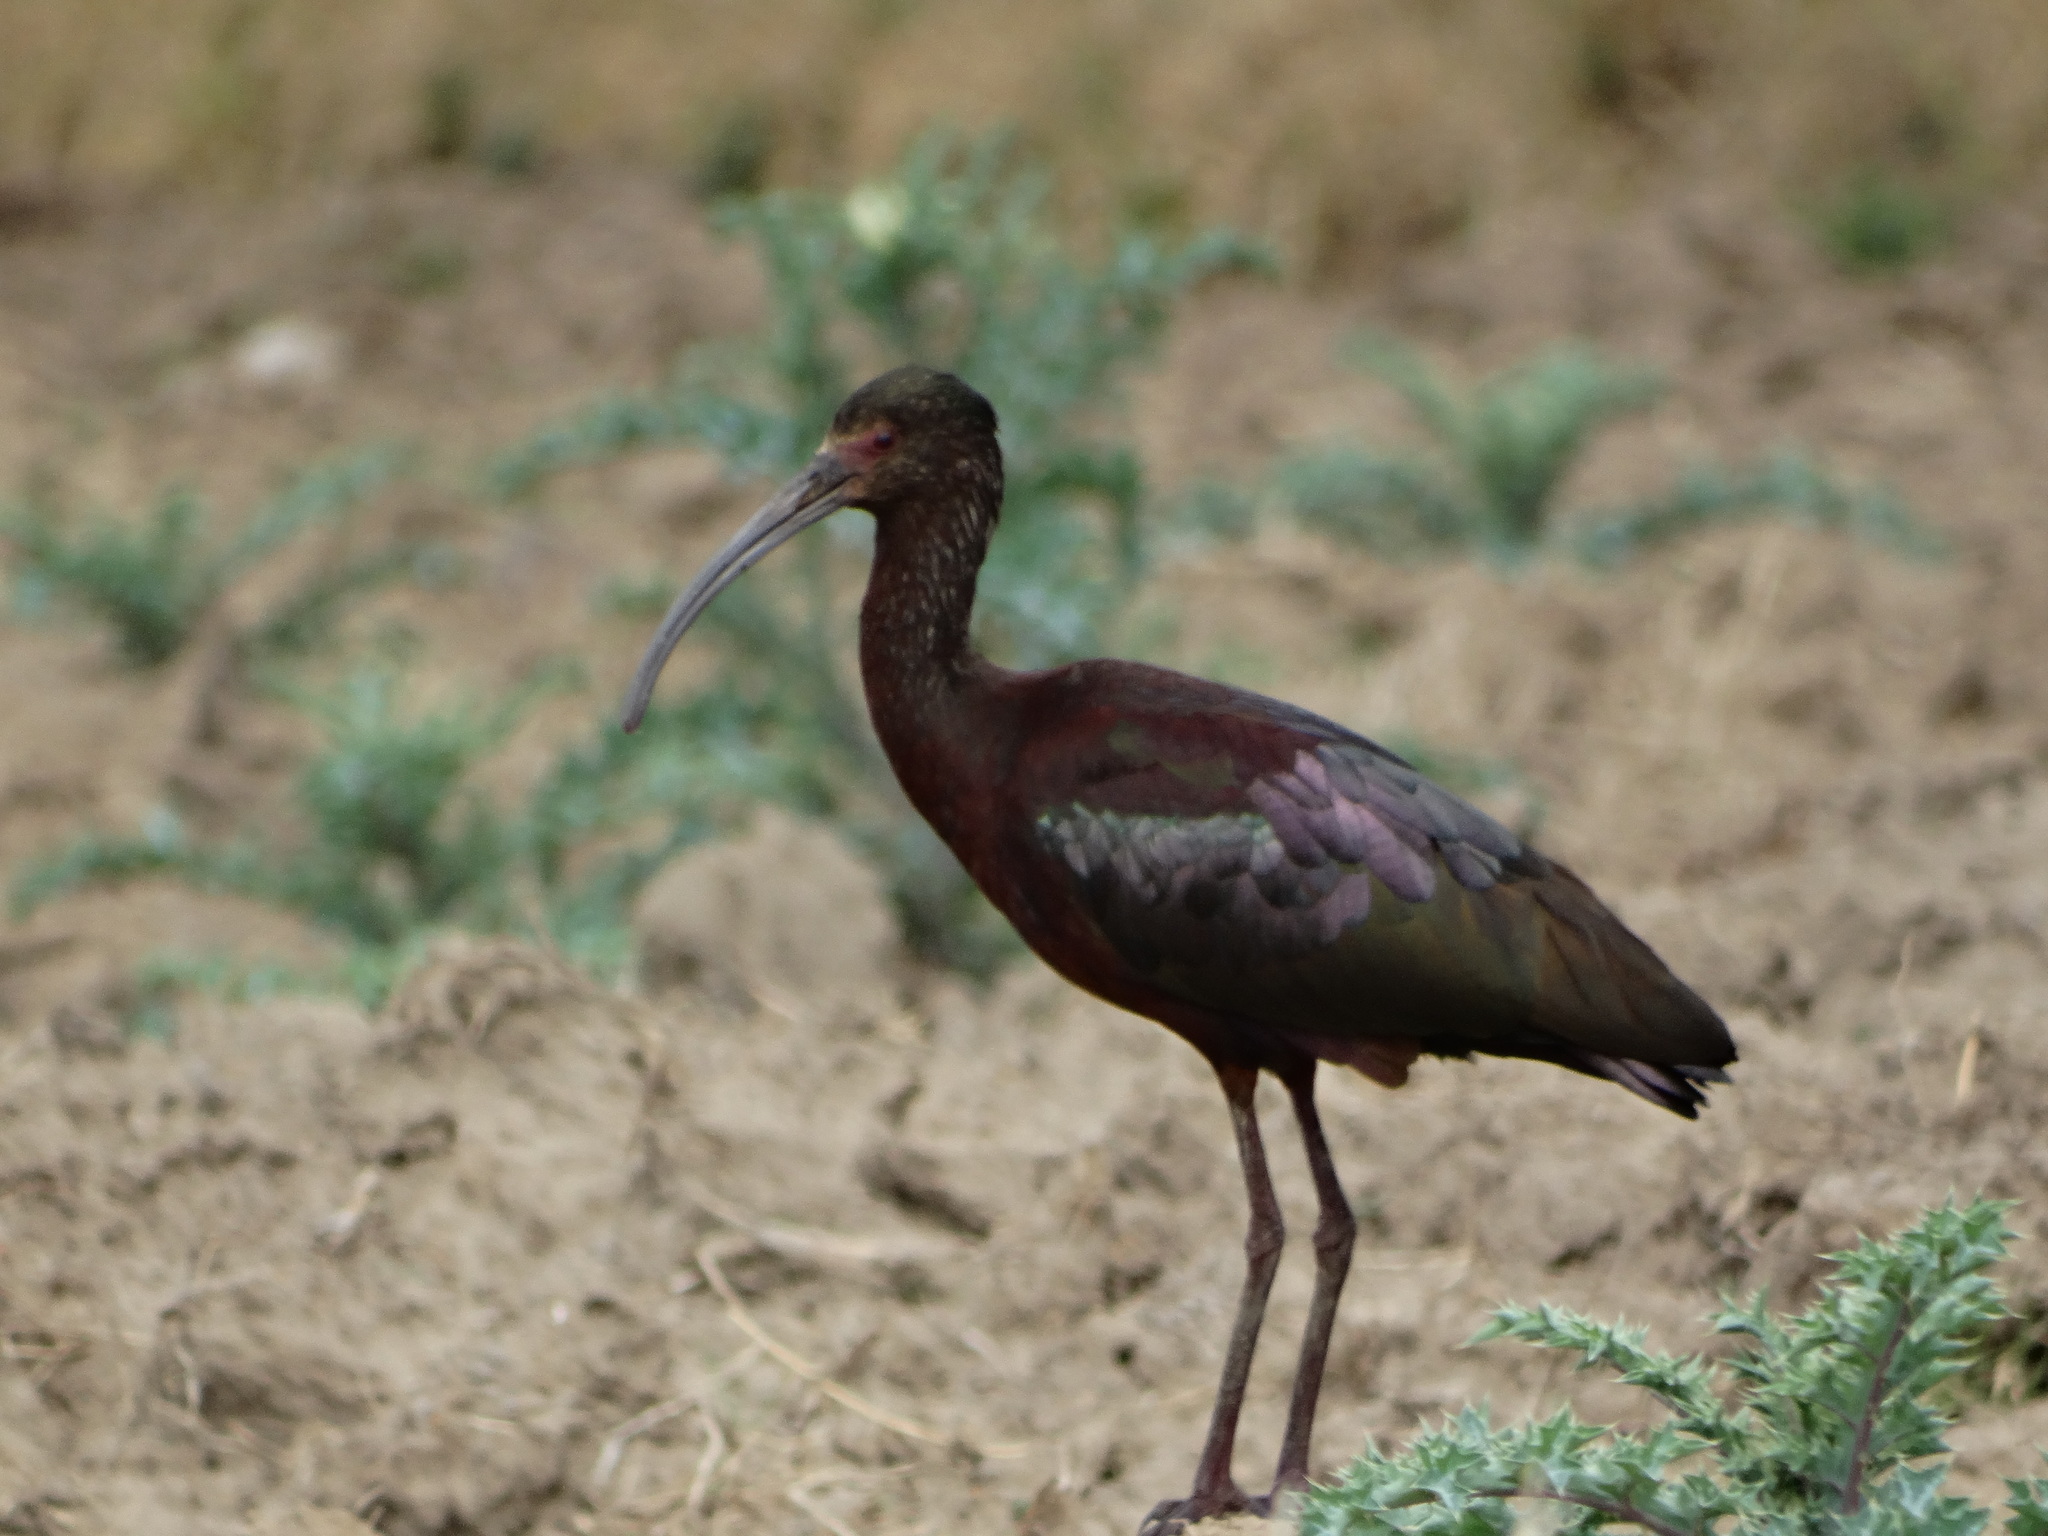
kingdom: Animalia
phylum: Chordata
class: Aves
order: Pelecaniformes
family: Threskiornithidae
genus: Plegadis
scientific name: Plegadis chihi
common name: White-faced ibis
